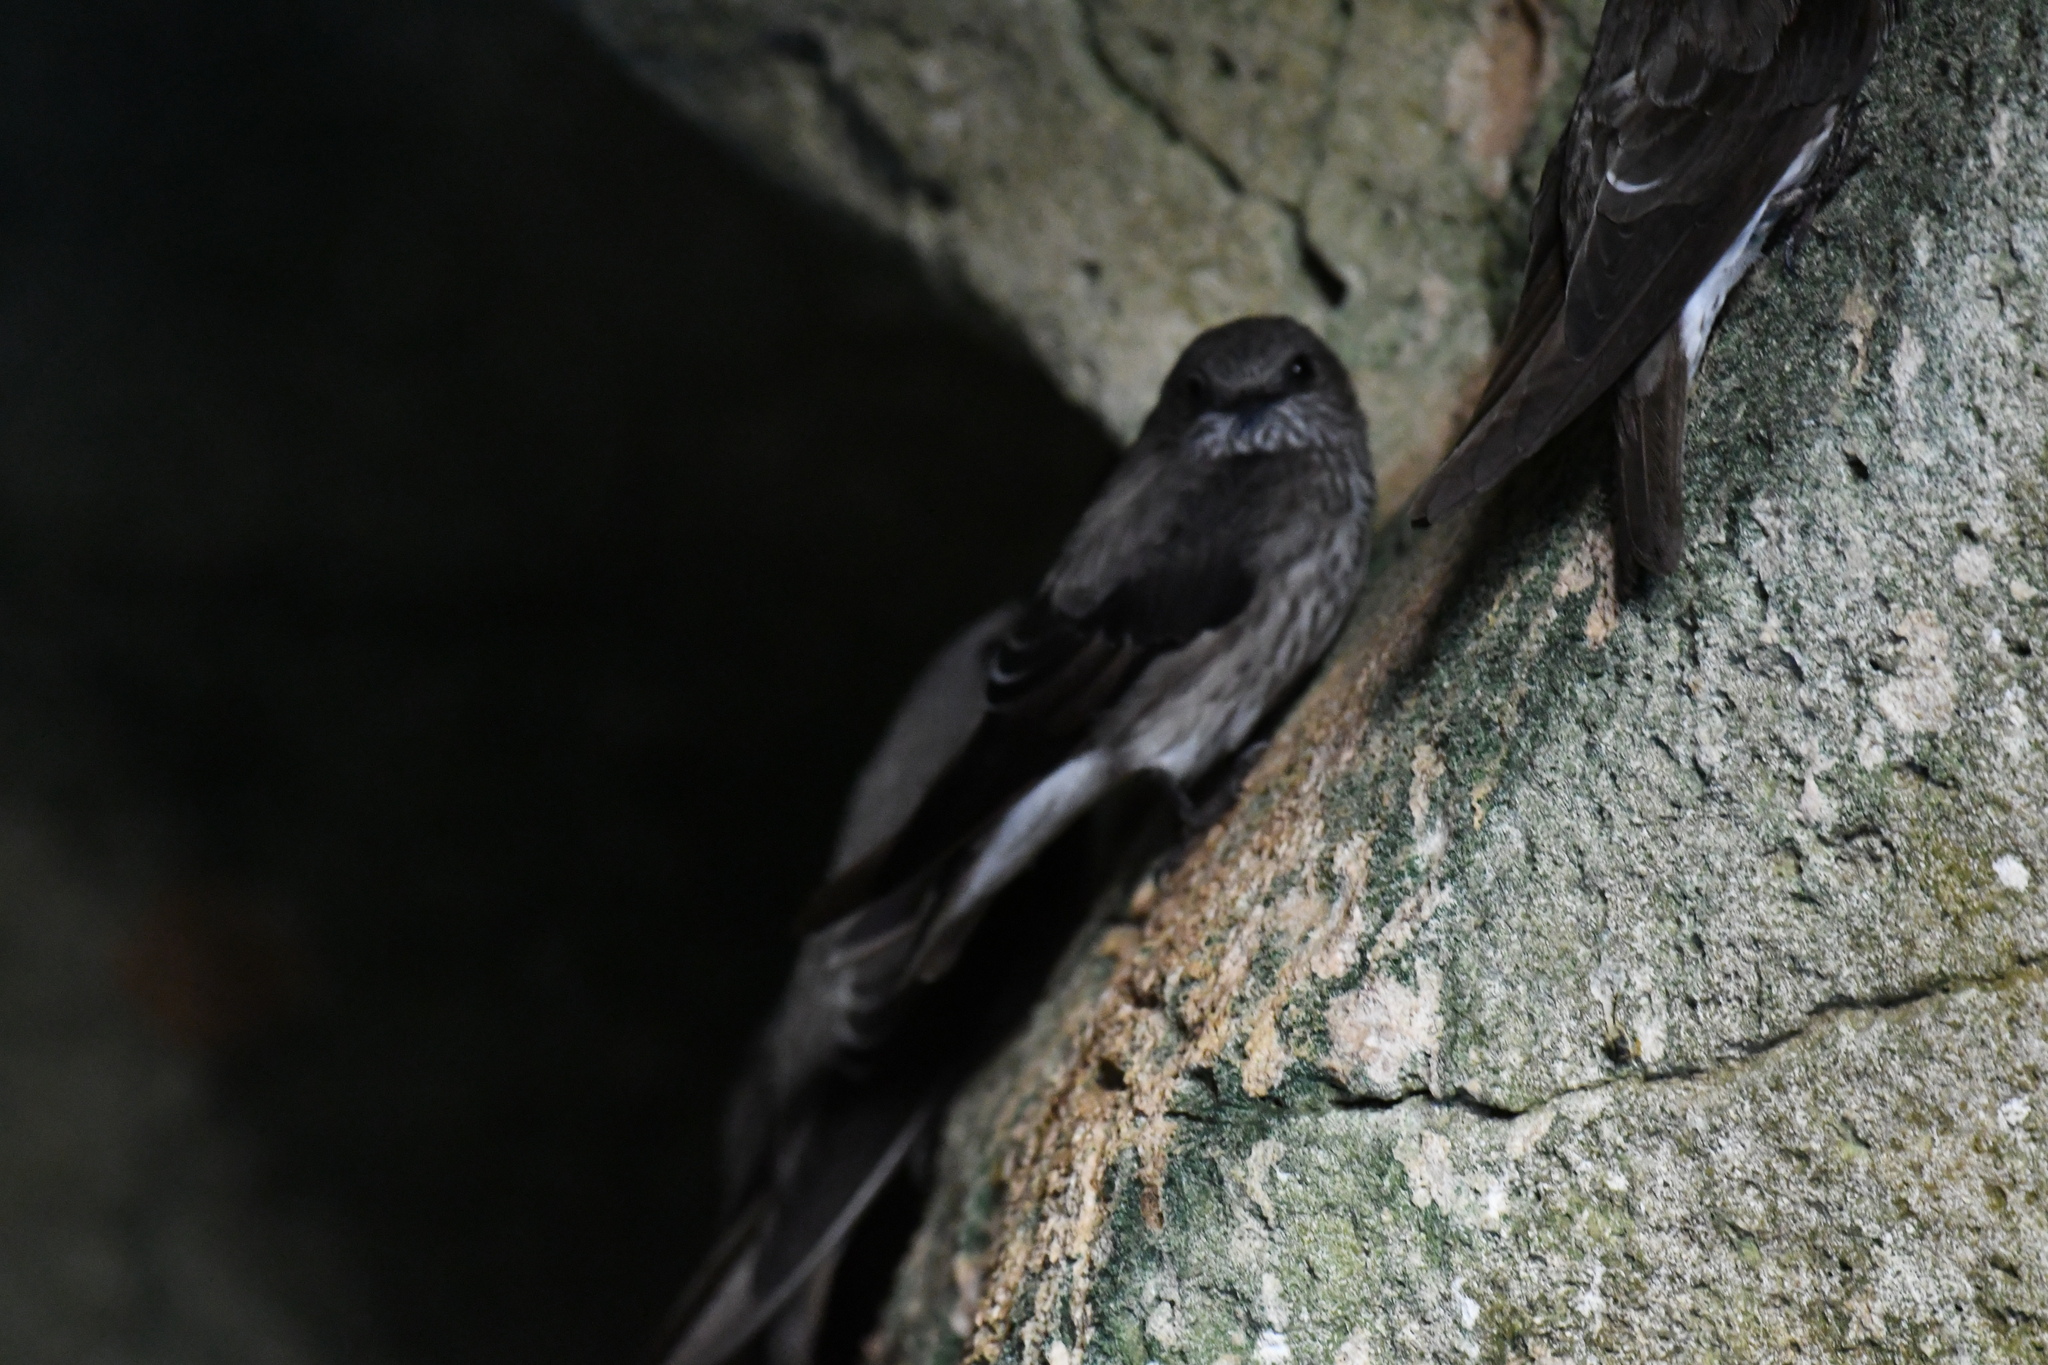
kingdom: Animalia
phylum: Chordata
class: Aves
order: Passeriformes
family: Hirundinidae
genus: Phedina
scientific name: Phedina borbonica
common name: Mascarene martin
